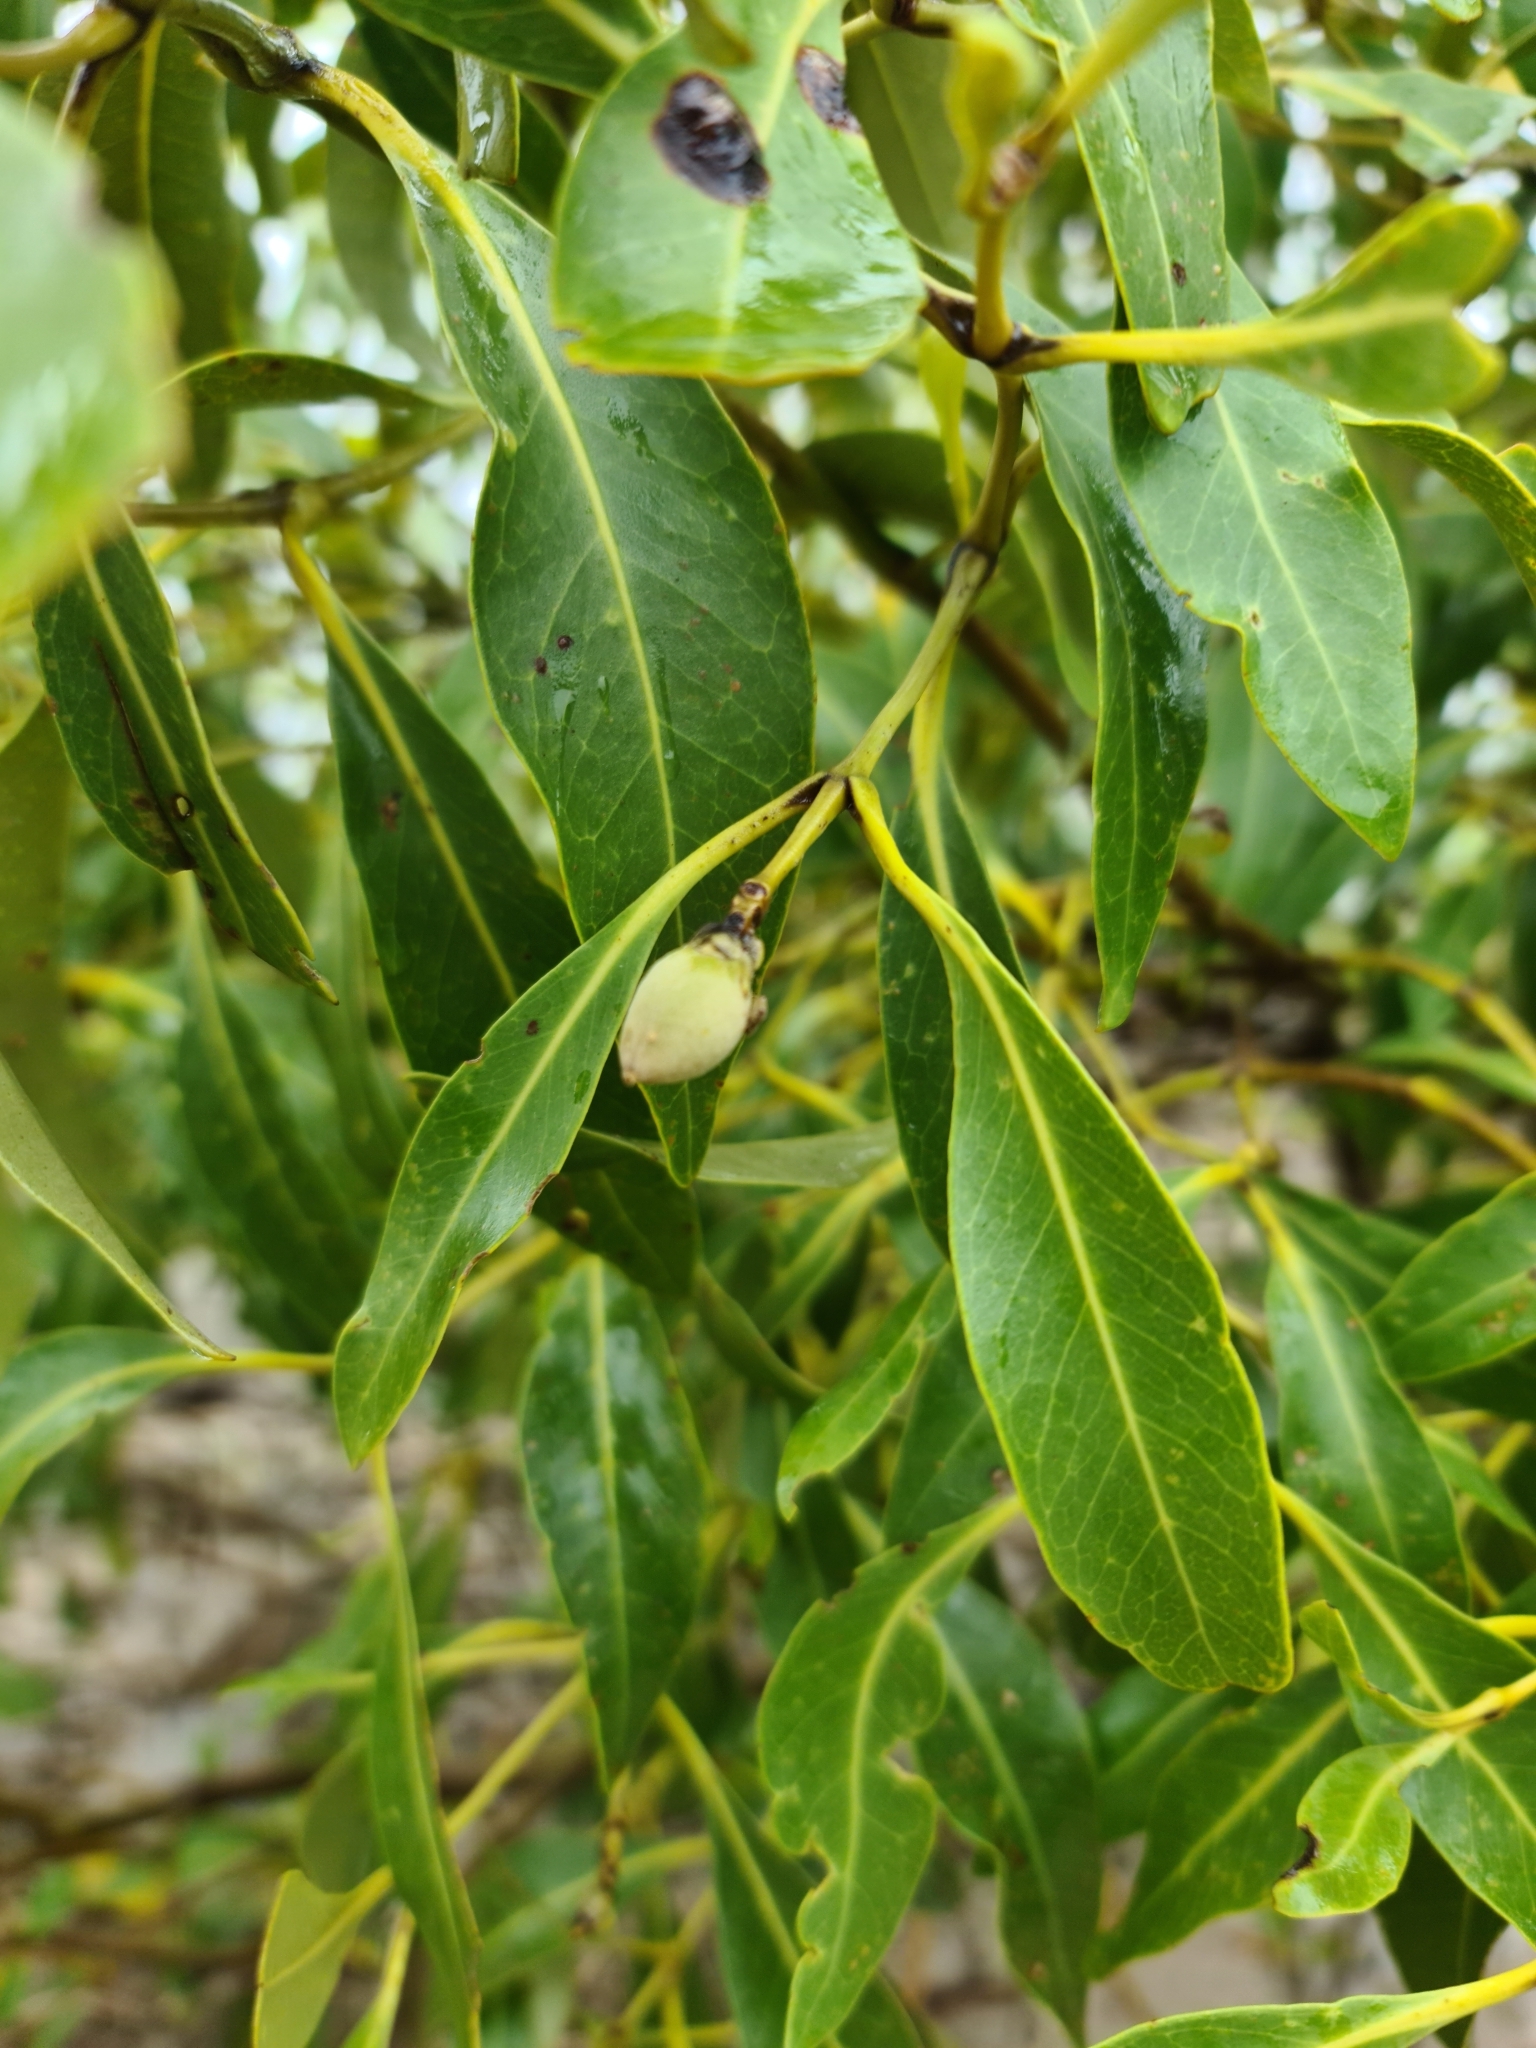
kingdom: Plantae
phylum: Tracheophyta
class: Magnoliopsida
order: Lamiales
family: Acanthaceae
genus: Avicennia
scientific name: Avicennia marina
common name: Gray mangrove
